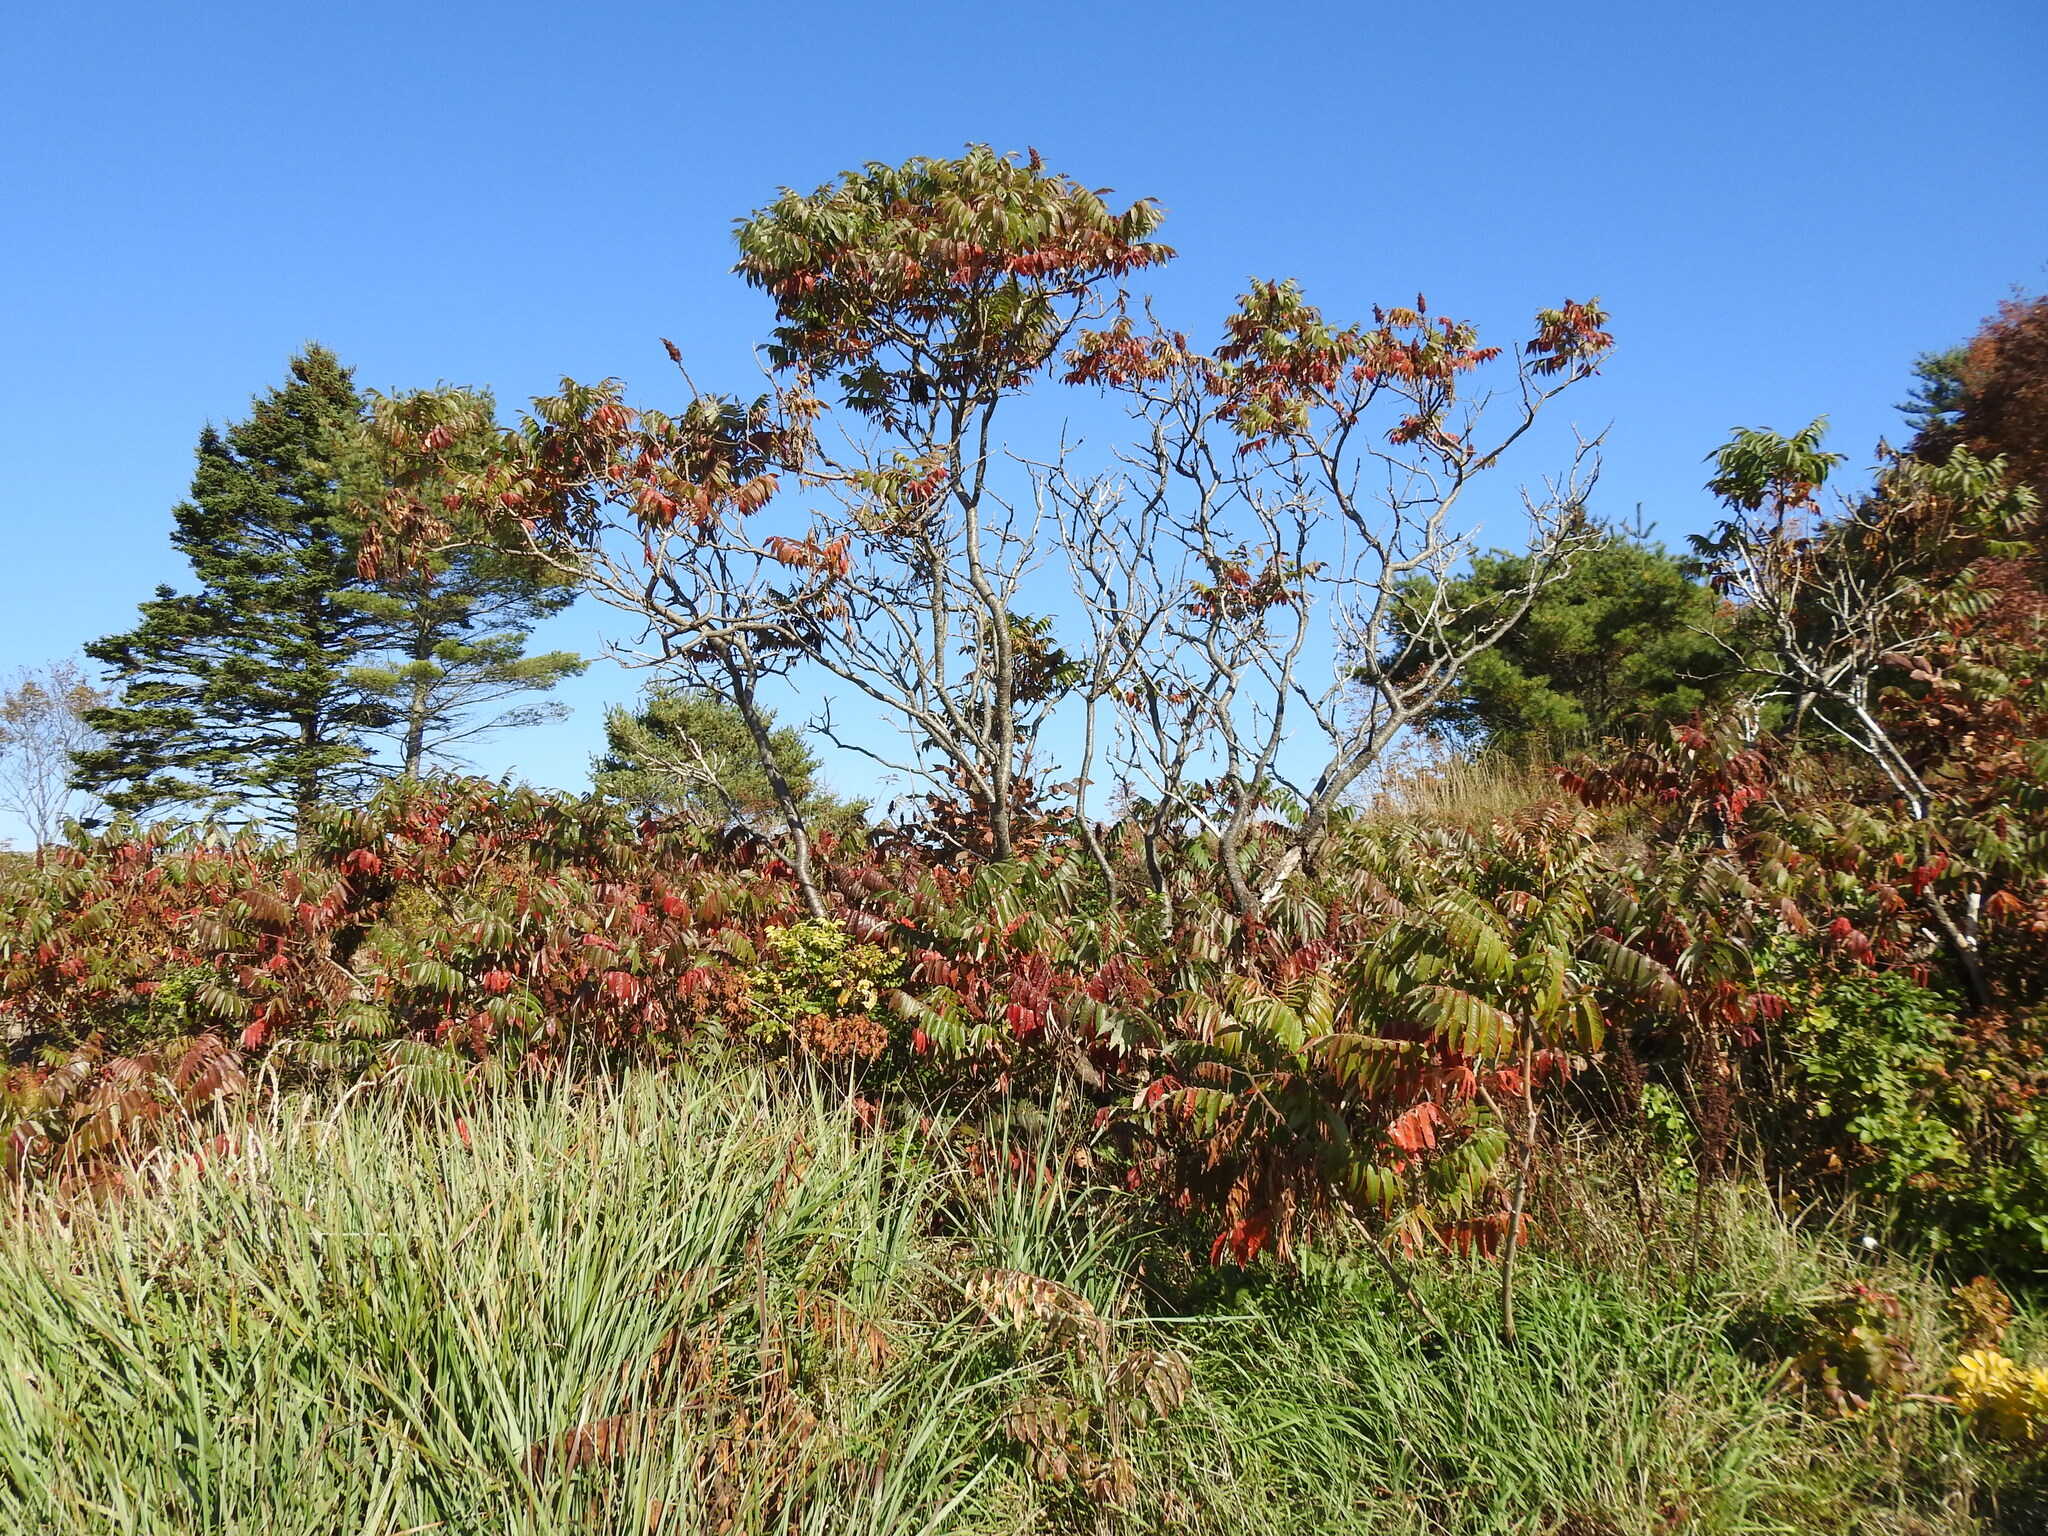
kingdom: Plantae
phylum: Tracheophyta
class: Magnoliopsida
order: Sapindales
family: Anacardiaceae
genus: Rhus
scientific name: Rhus typhina
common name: Staghorn sumac
